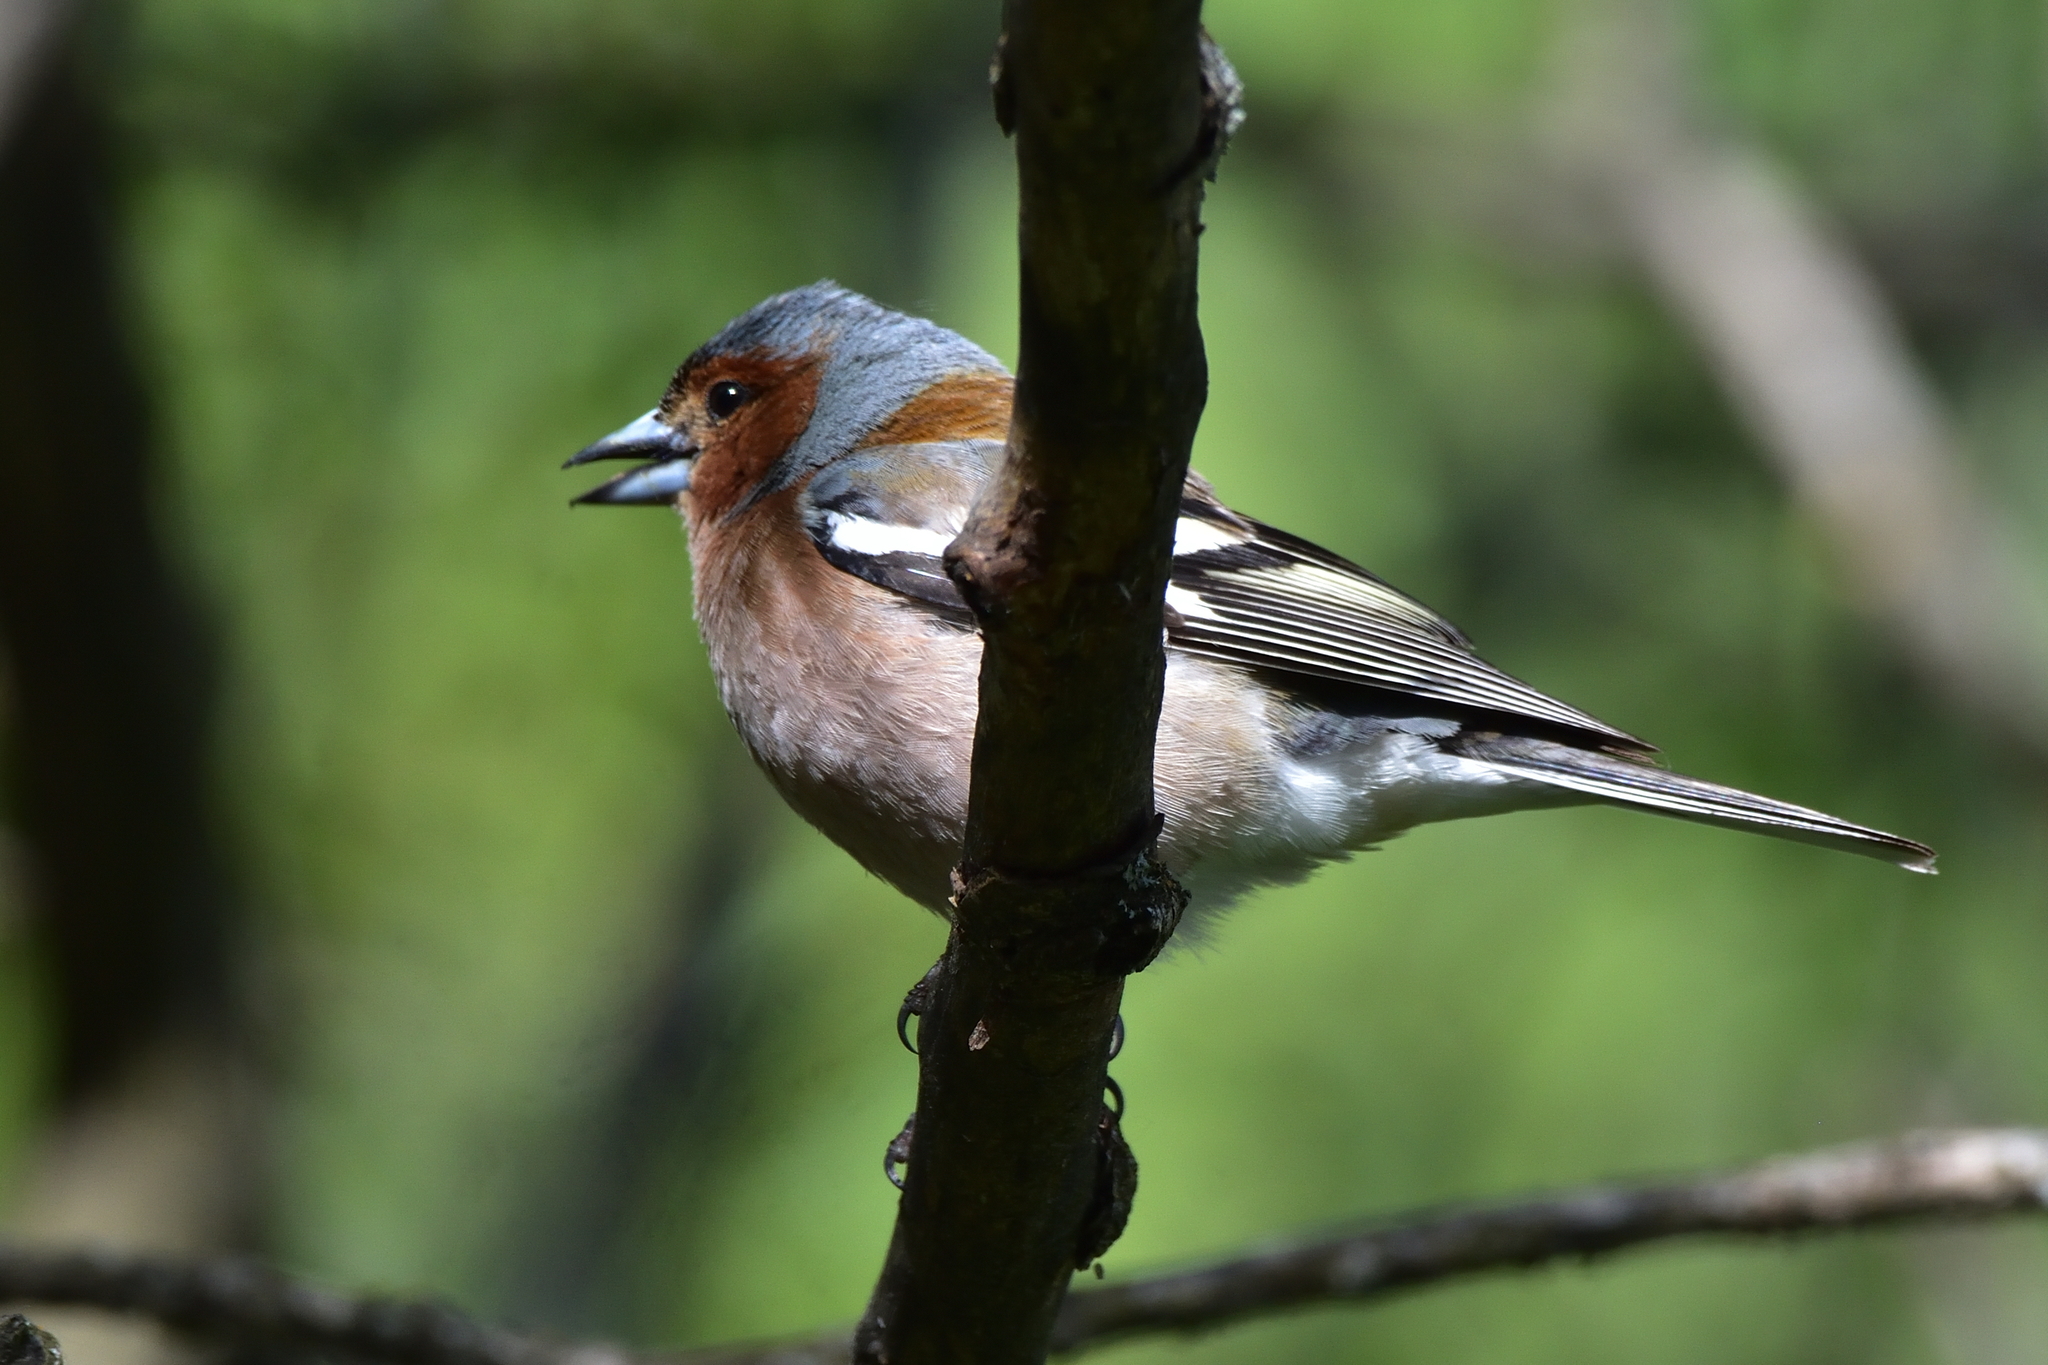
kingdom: Animalia
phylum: Chordata
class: Aves
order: Passeriformes
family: Fringillidae
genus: Fringilla
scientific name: Fringilla coelebs
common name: Common chaffinch
